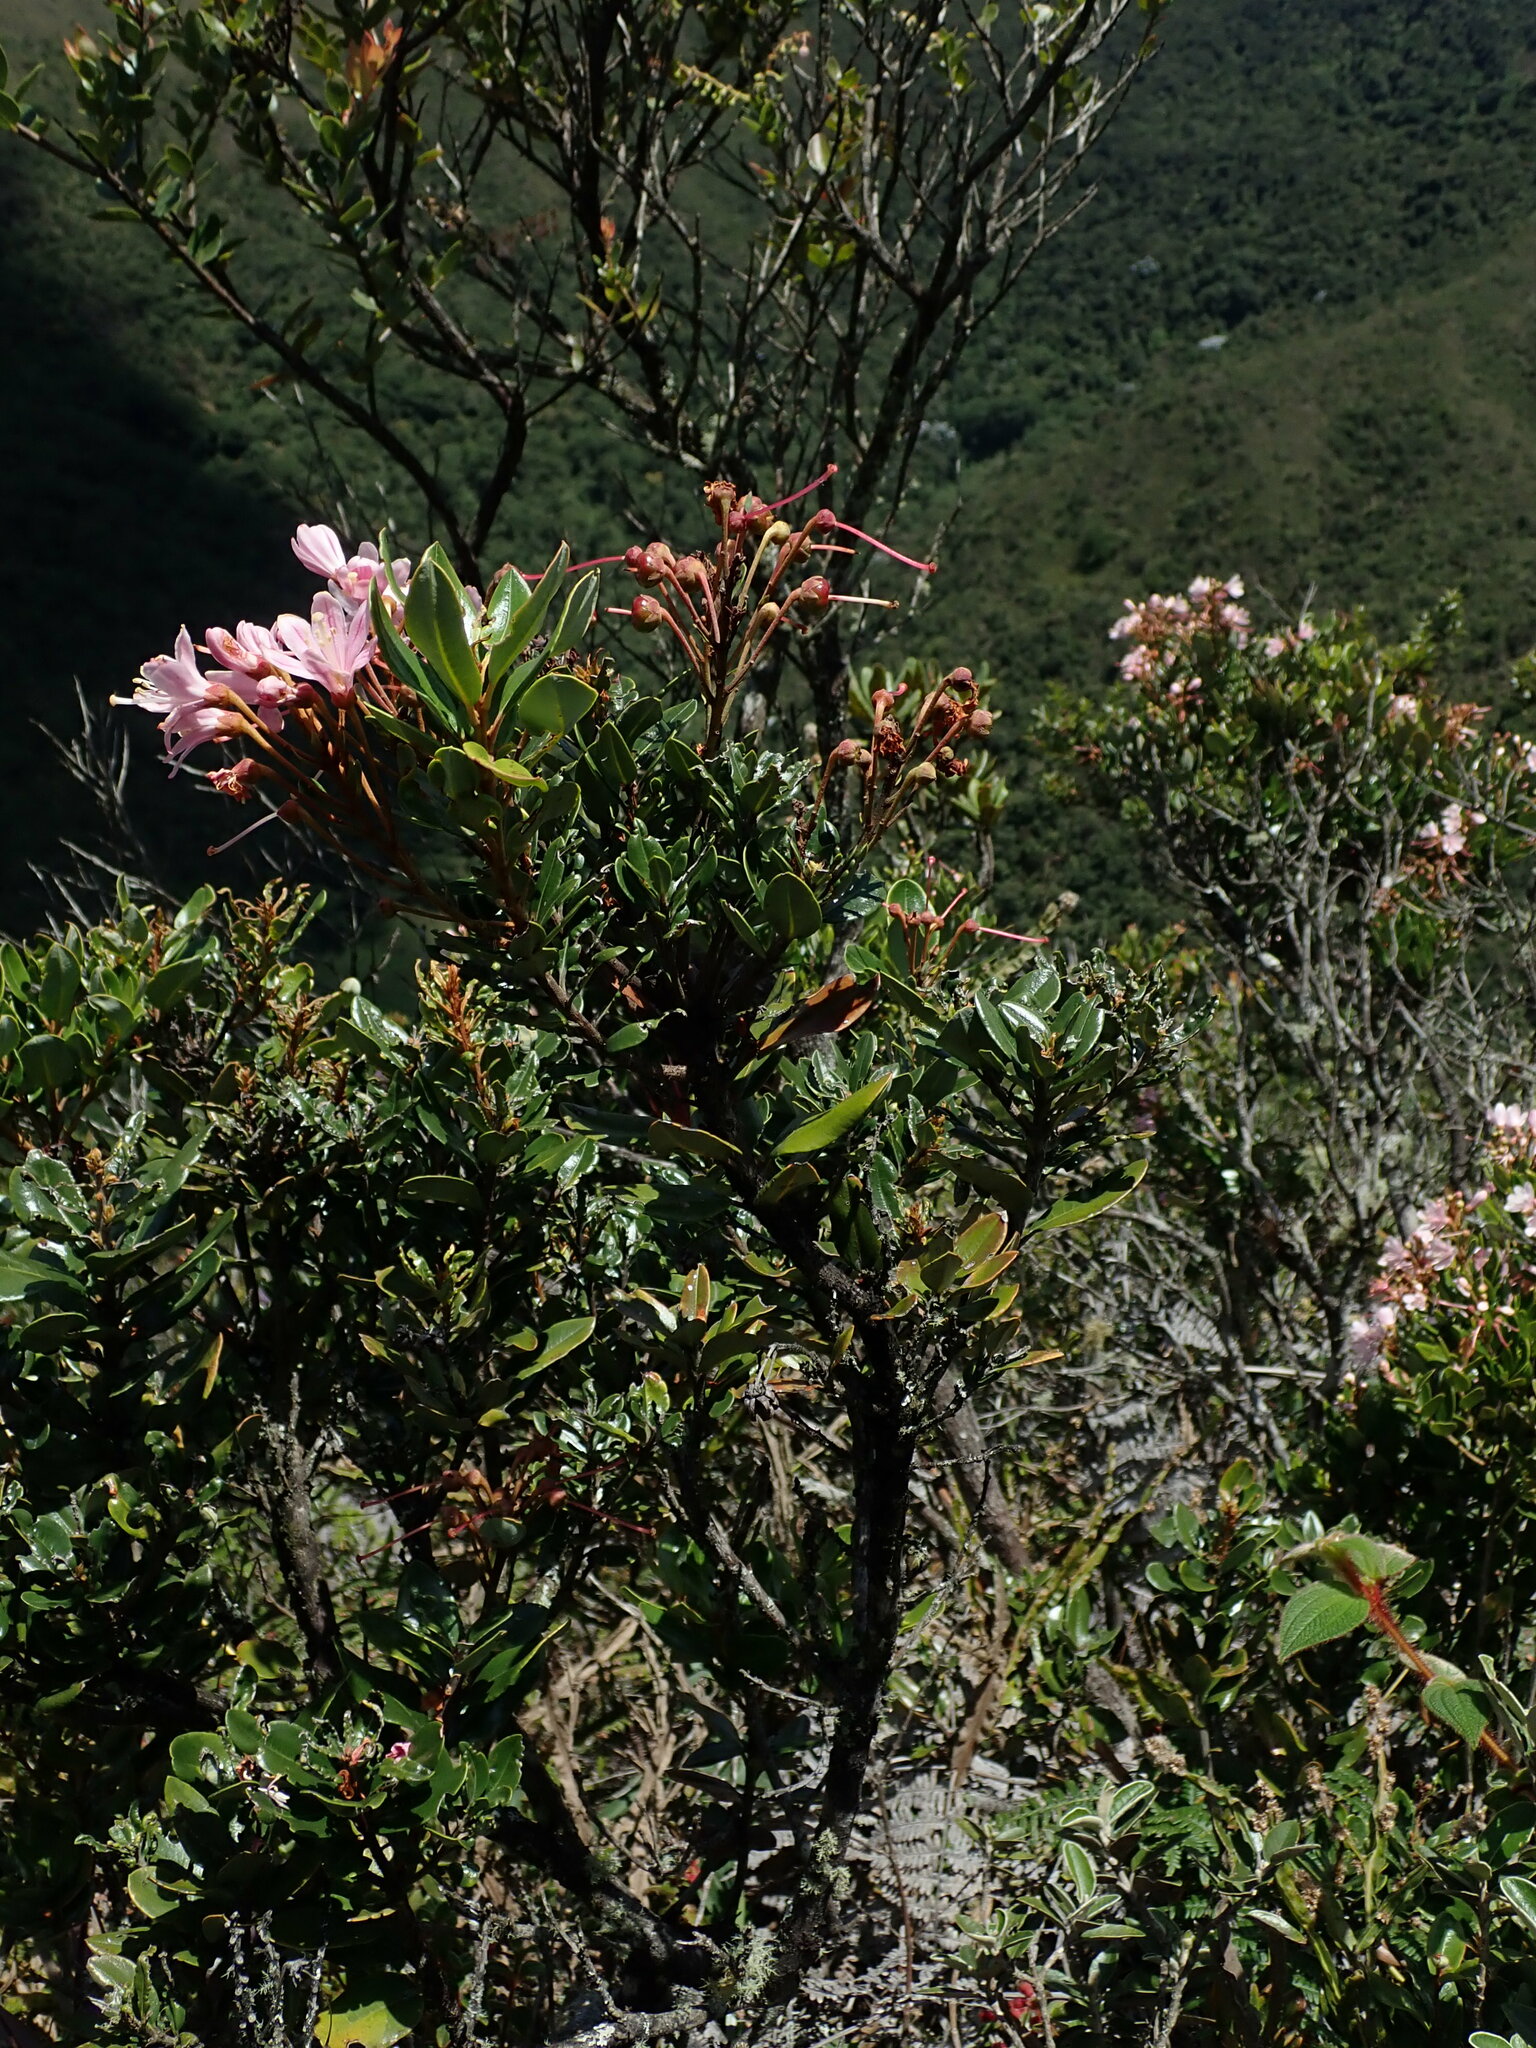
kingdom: Plantae
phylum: Tracheophyta
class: Magnoliopsida
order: Ericales
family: Ericaceae
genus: Bejaria
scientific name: Bejaria aestuans
